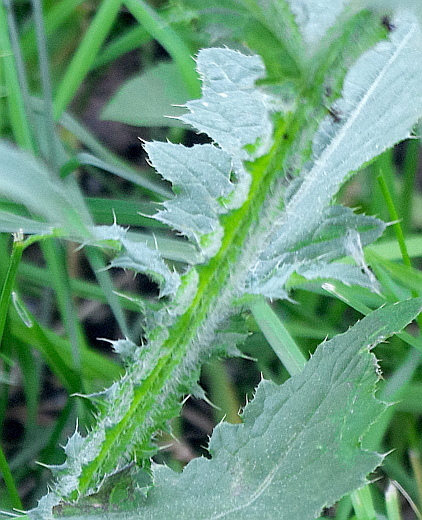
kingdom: Plantae
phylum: Tracheophyta
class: Magnoliopsida
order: Asterales
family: Asteraceae
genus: Carduus
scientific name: Carduus crispus
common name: Welted thistle
